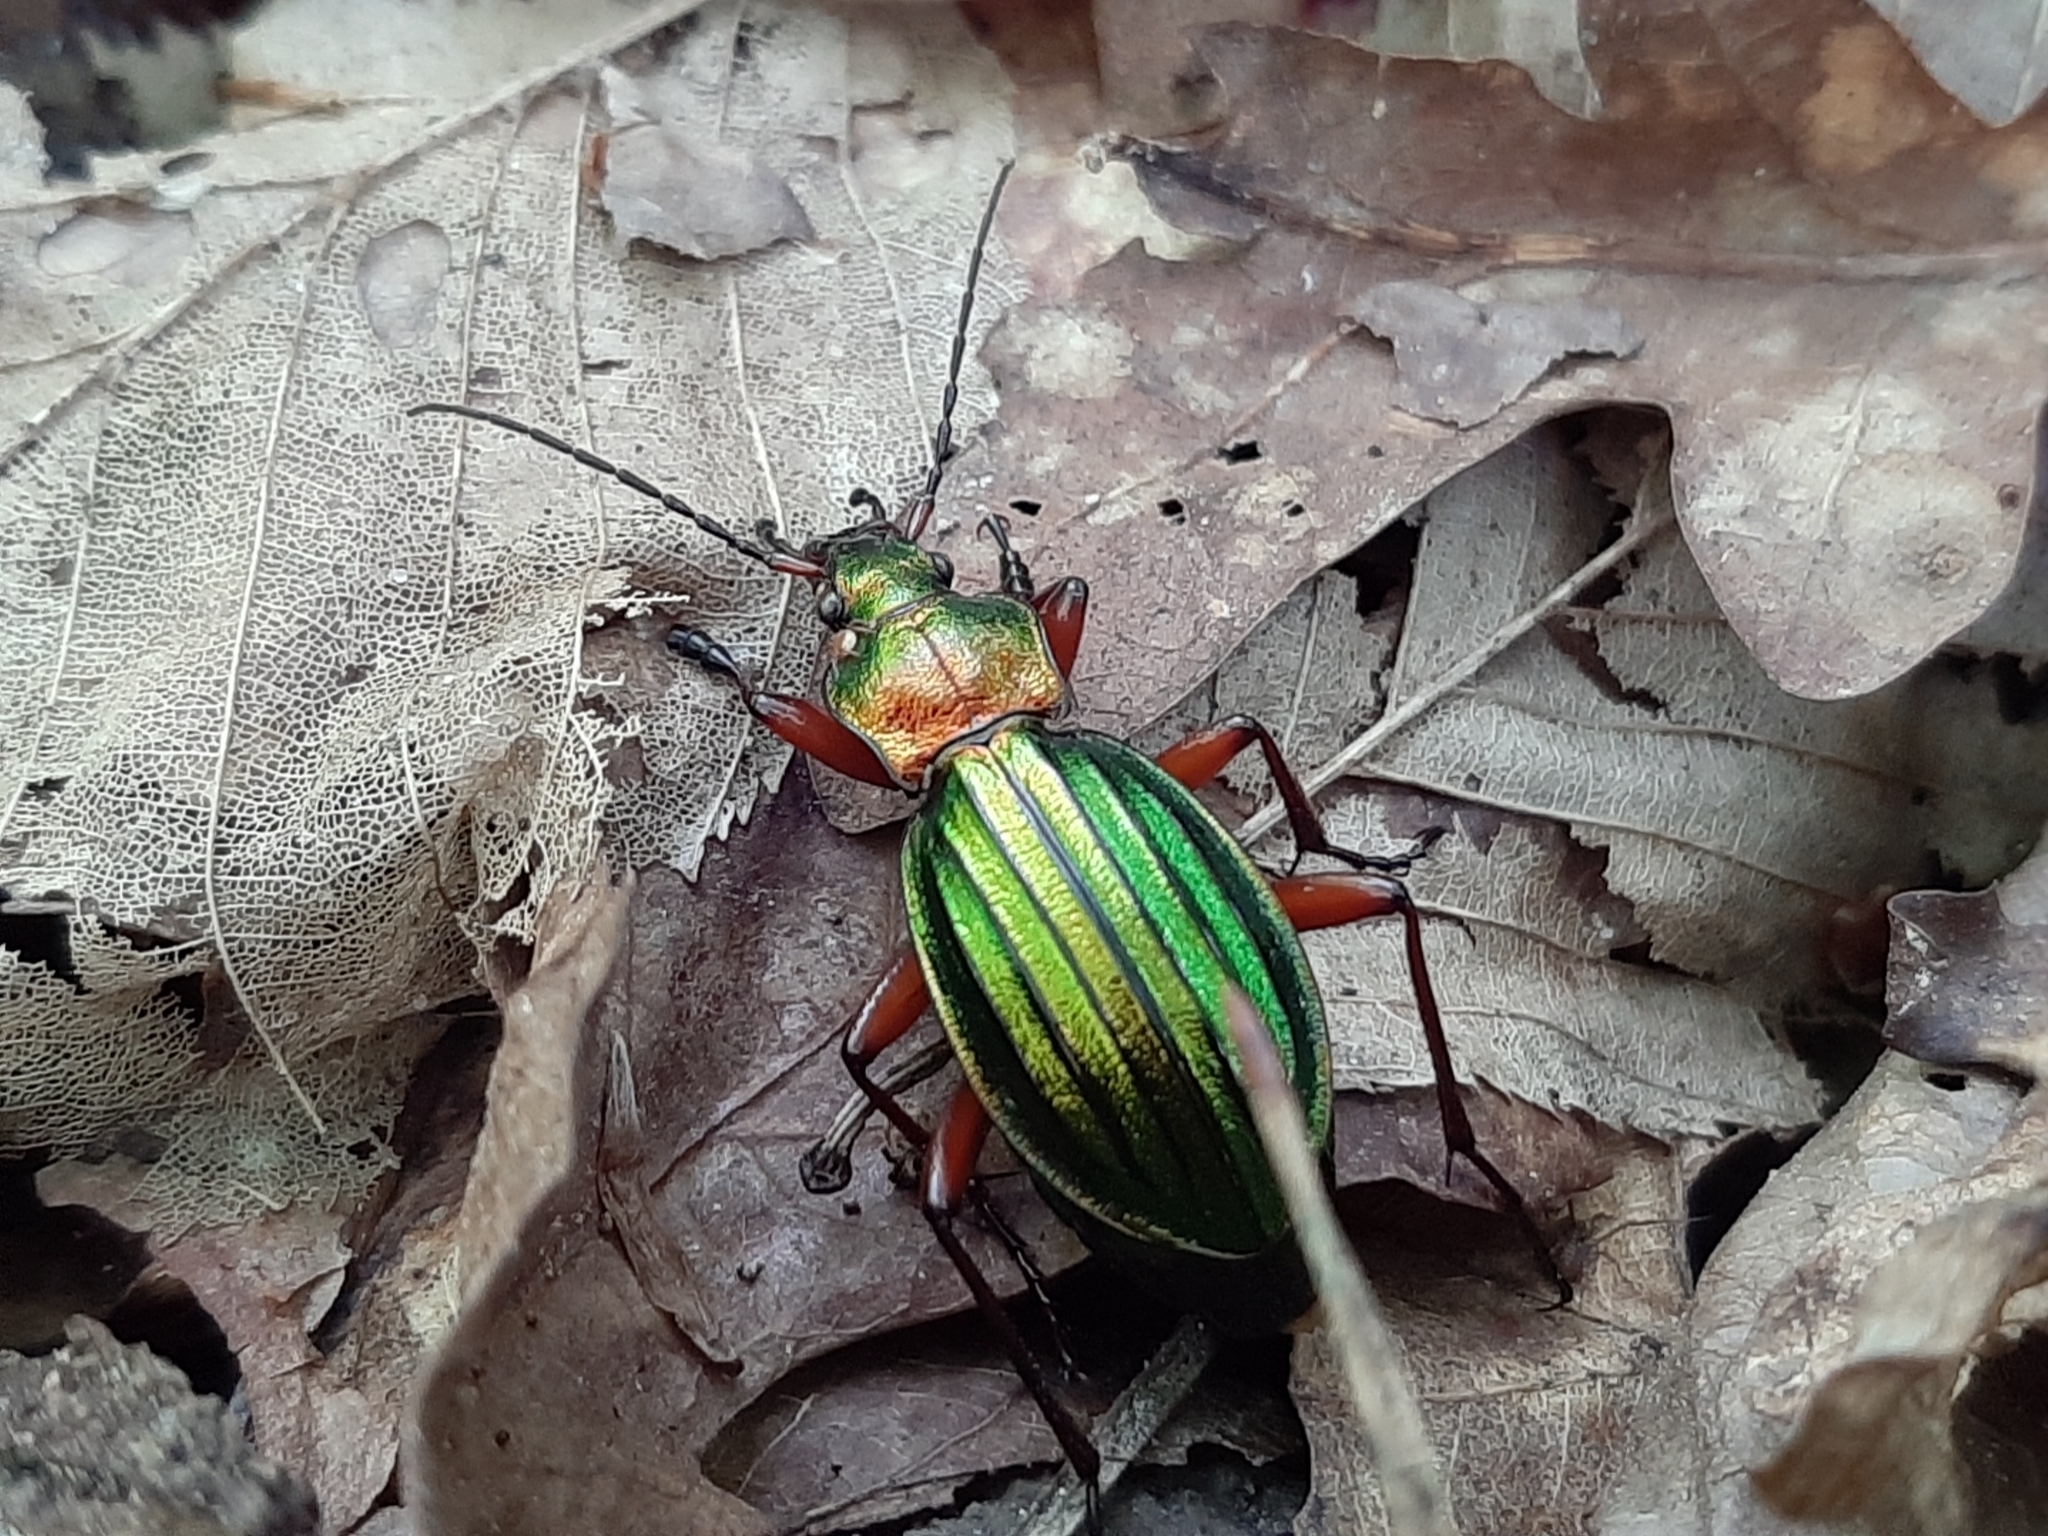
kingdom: Animalia
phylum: Arthropoda
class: Insecta
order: Coleoptera
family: Carabidae
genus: Carabus
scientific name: Carabus auronitens
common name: Carabus auronitens
